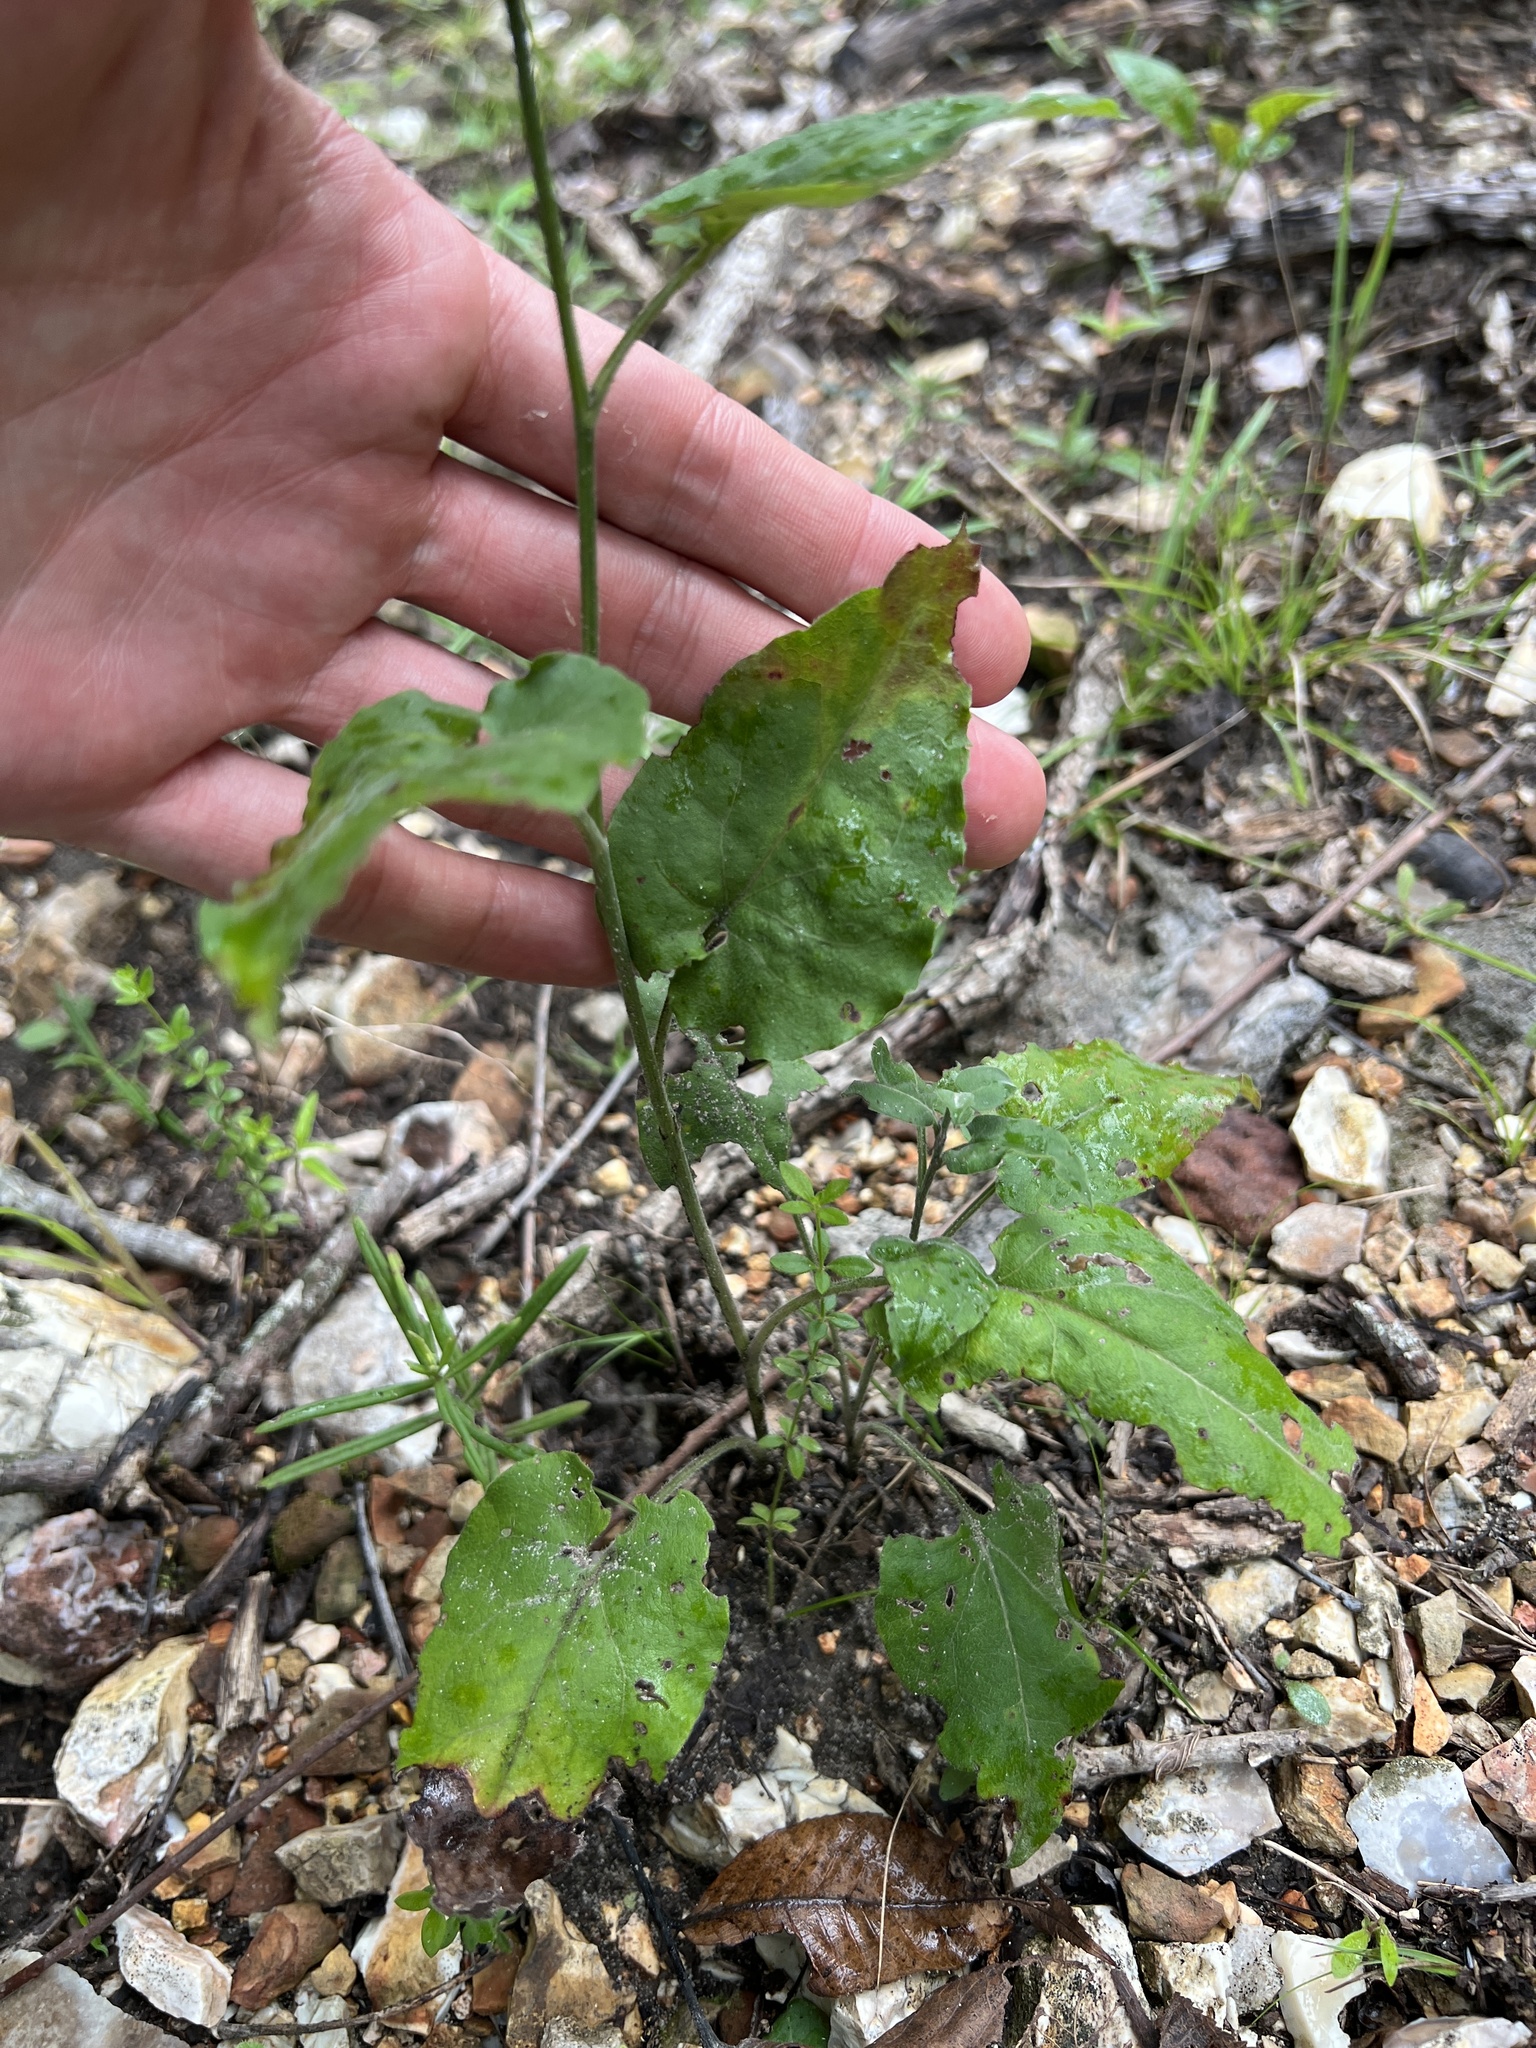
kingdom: Plantae
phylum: Tracheophyta
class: Magnoliopsida
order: Asterales
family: Asteraceae
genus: Symphyotrichum
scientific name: Symphyotrichum anomalum
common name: Many-ray aster
